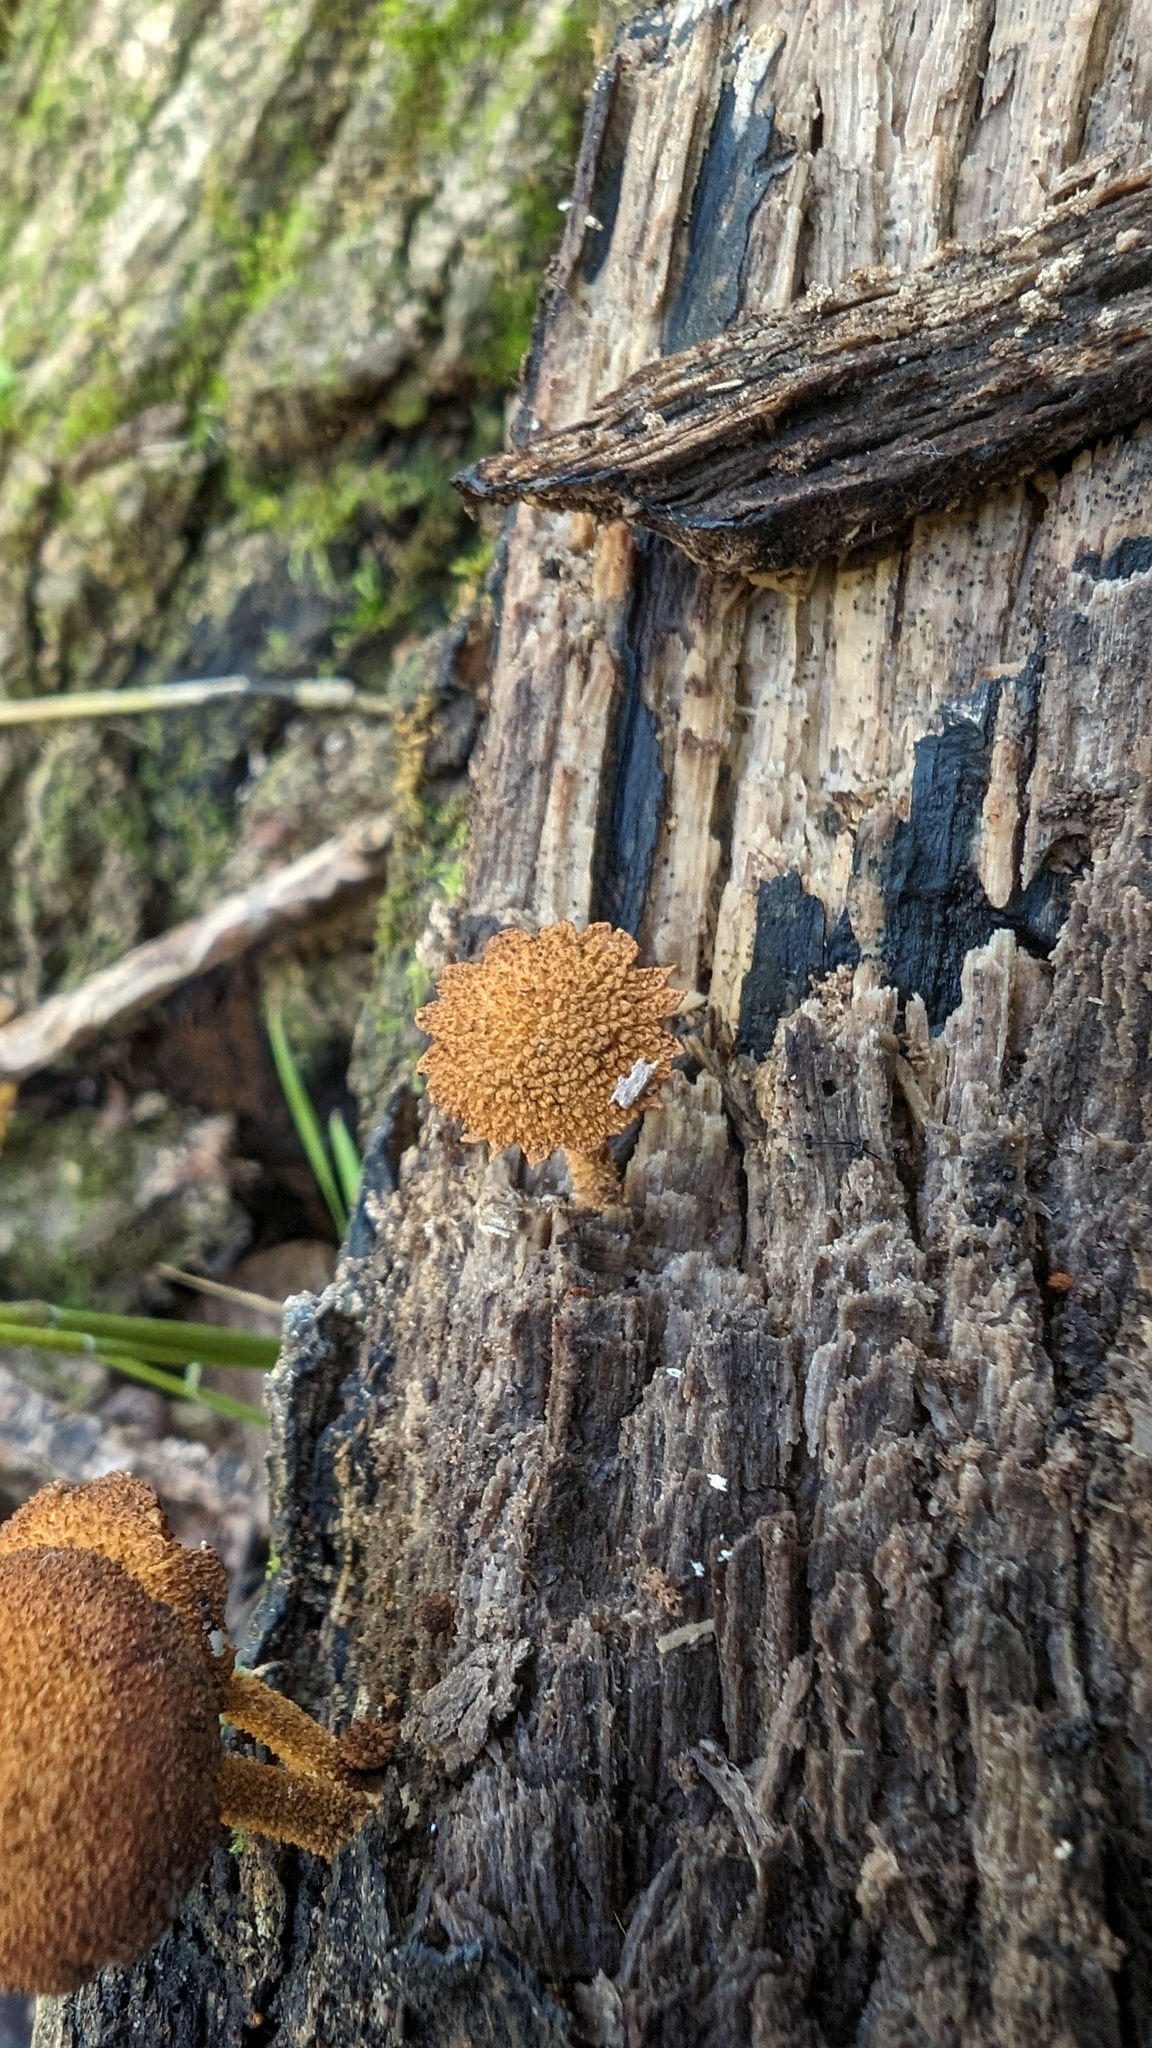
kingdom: Fungi
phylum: Basidiomycota
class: Agaricomycetes
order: Agaricales
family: Tubariaceae
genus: Flammulaster
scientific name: Flammulaster erinaceellus
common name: Powder-scale pholiota
